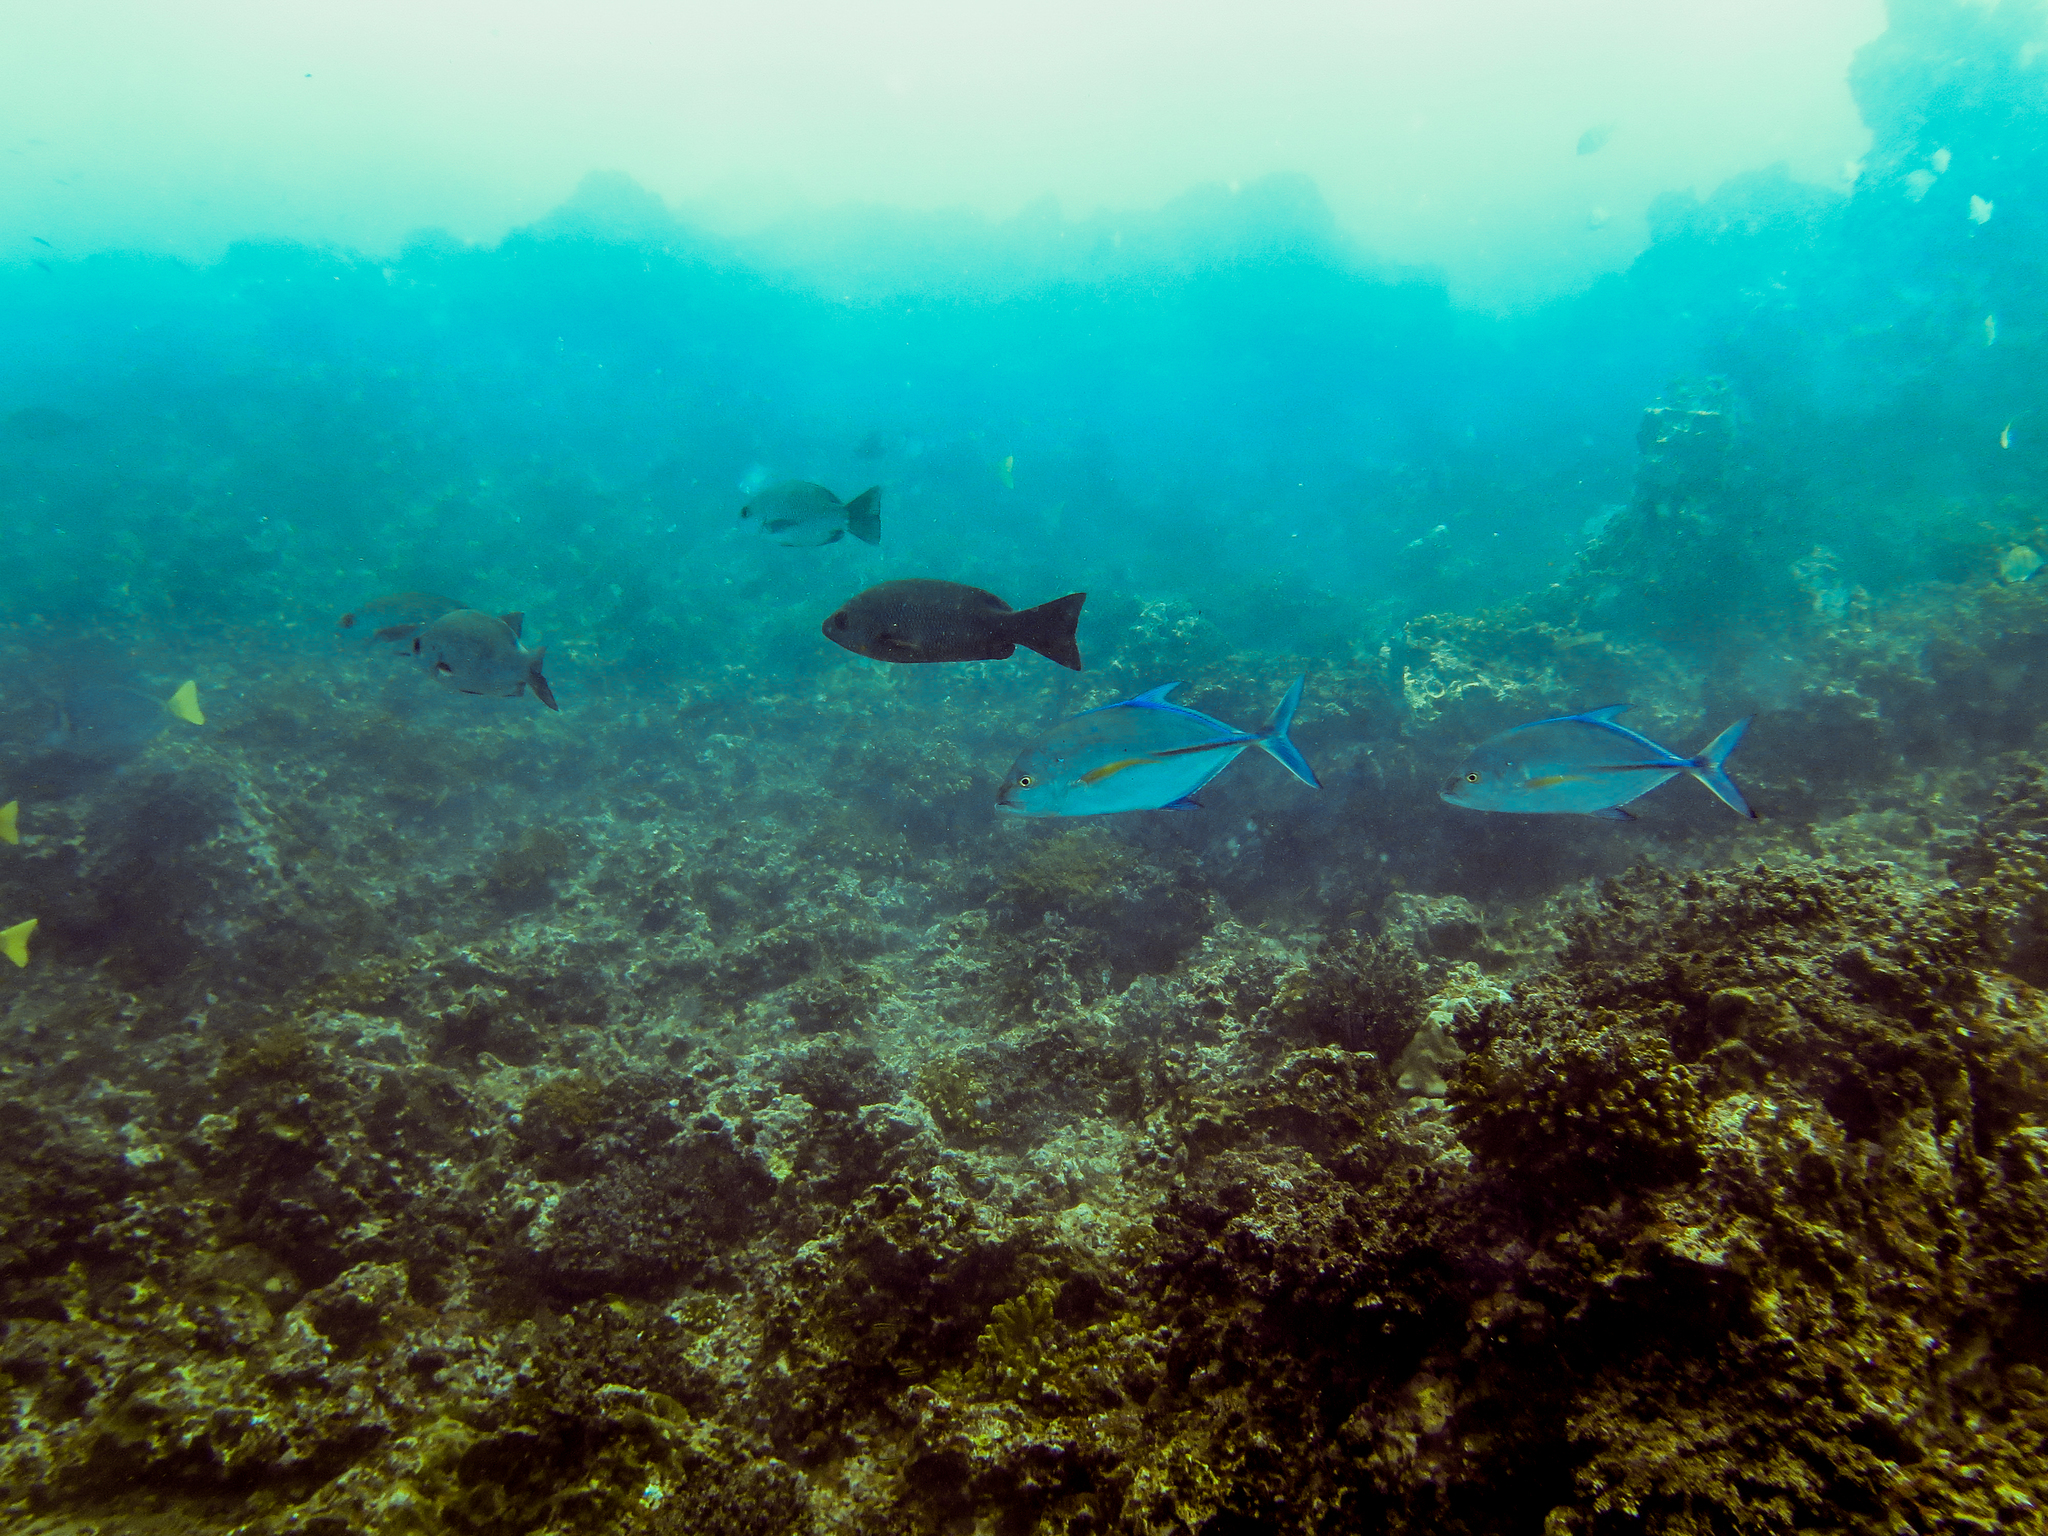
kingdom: Animalia
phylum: Chordata
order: Perciformes
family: Lutjanidae
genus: Lutjanus
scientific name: Lutjanus jordani
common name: Red snapper
